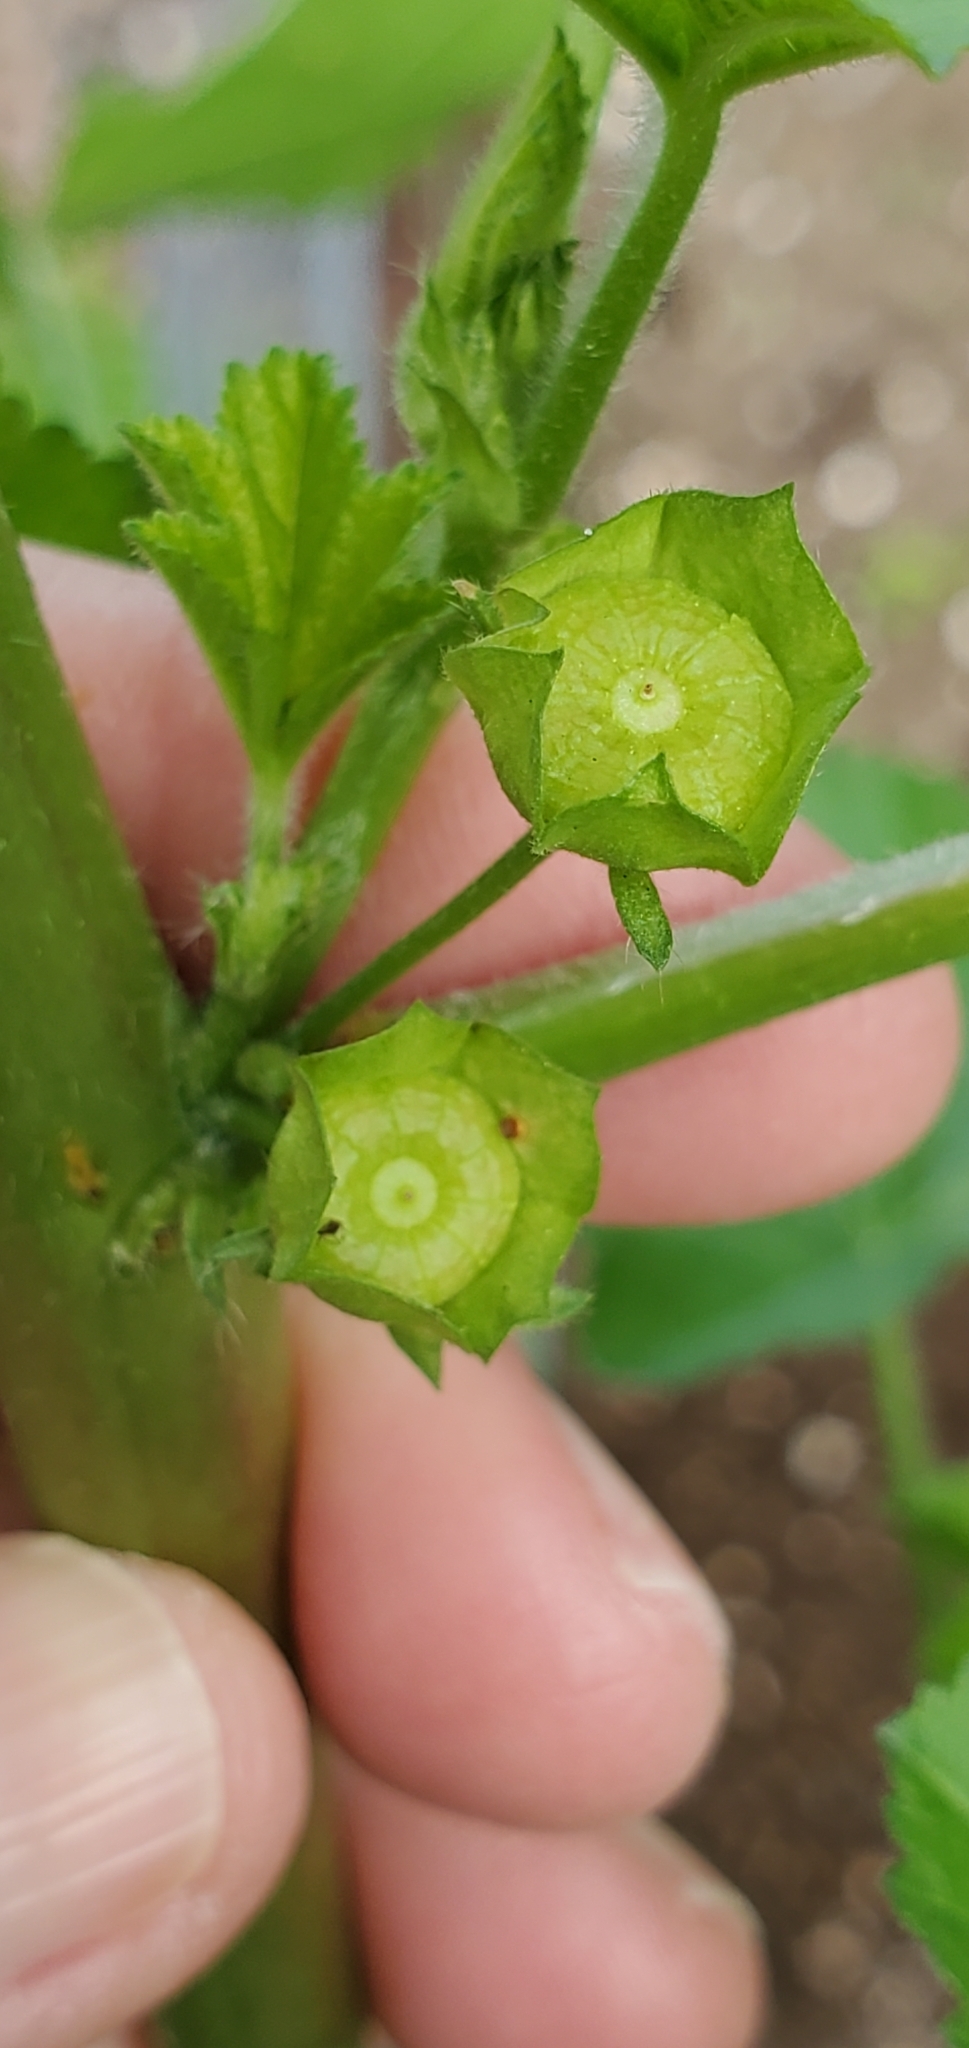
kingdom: Plantae
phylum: Tracheophyta
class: Magnoliopsida
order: Malvales
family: Malvaceae
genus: Malva
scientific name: Malva parviflora
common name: Least mallow
